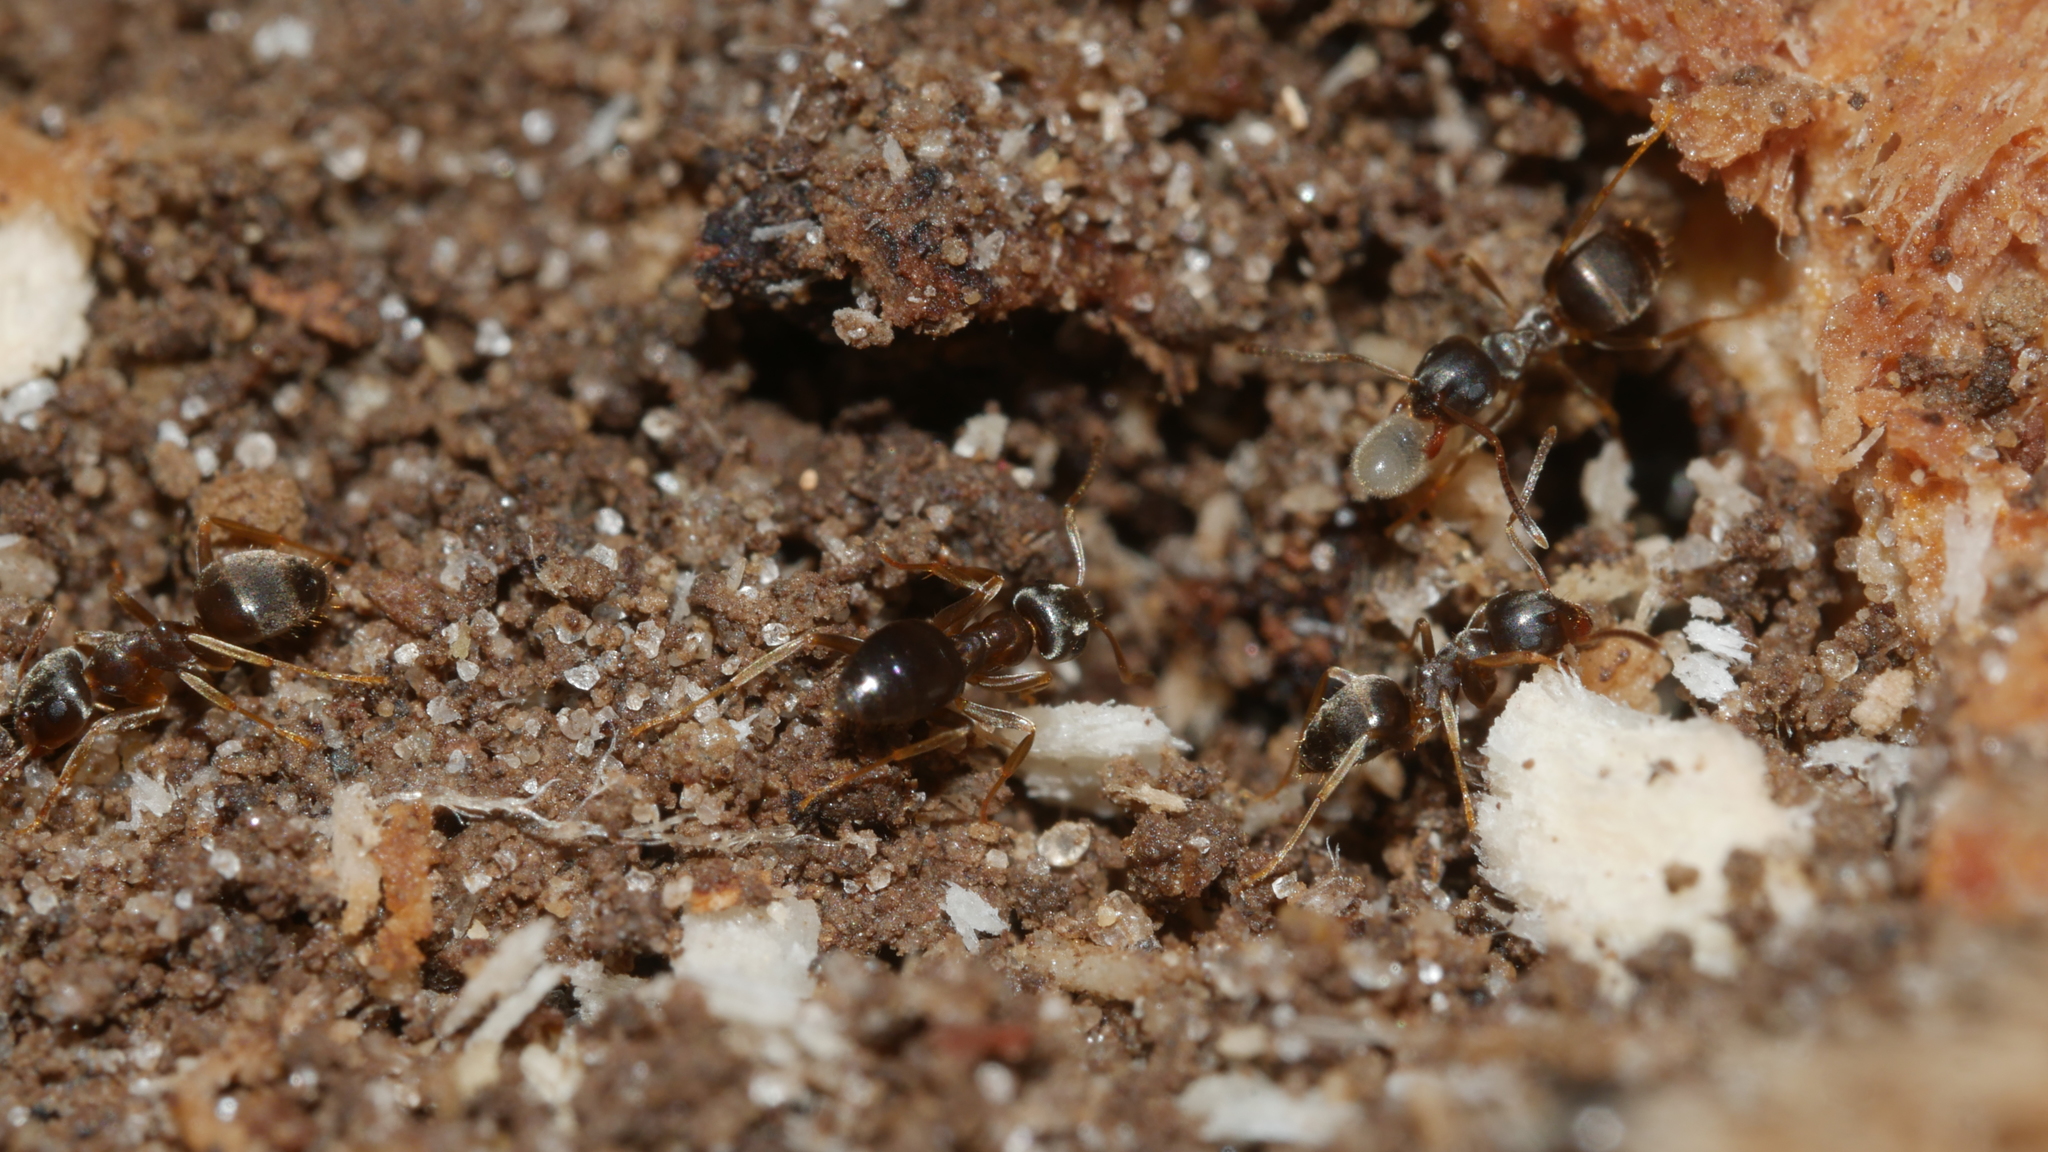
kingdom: Animalia
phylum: Arthropoda
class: Insecta
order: Hymenoptera
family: Formicidae
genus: Lasius
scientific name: Lasius americanus
